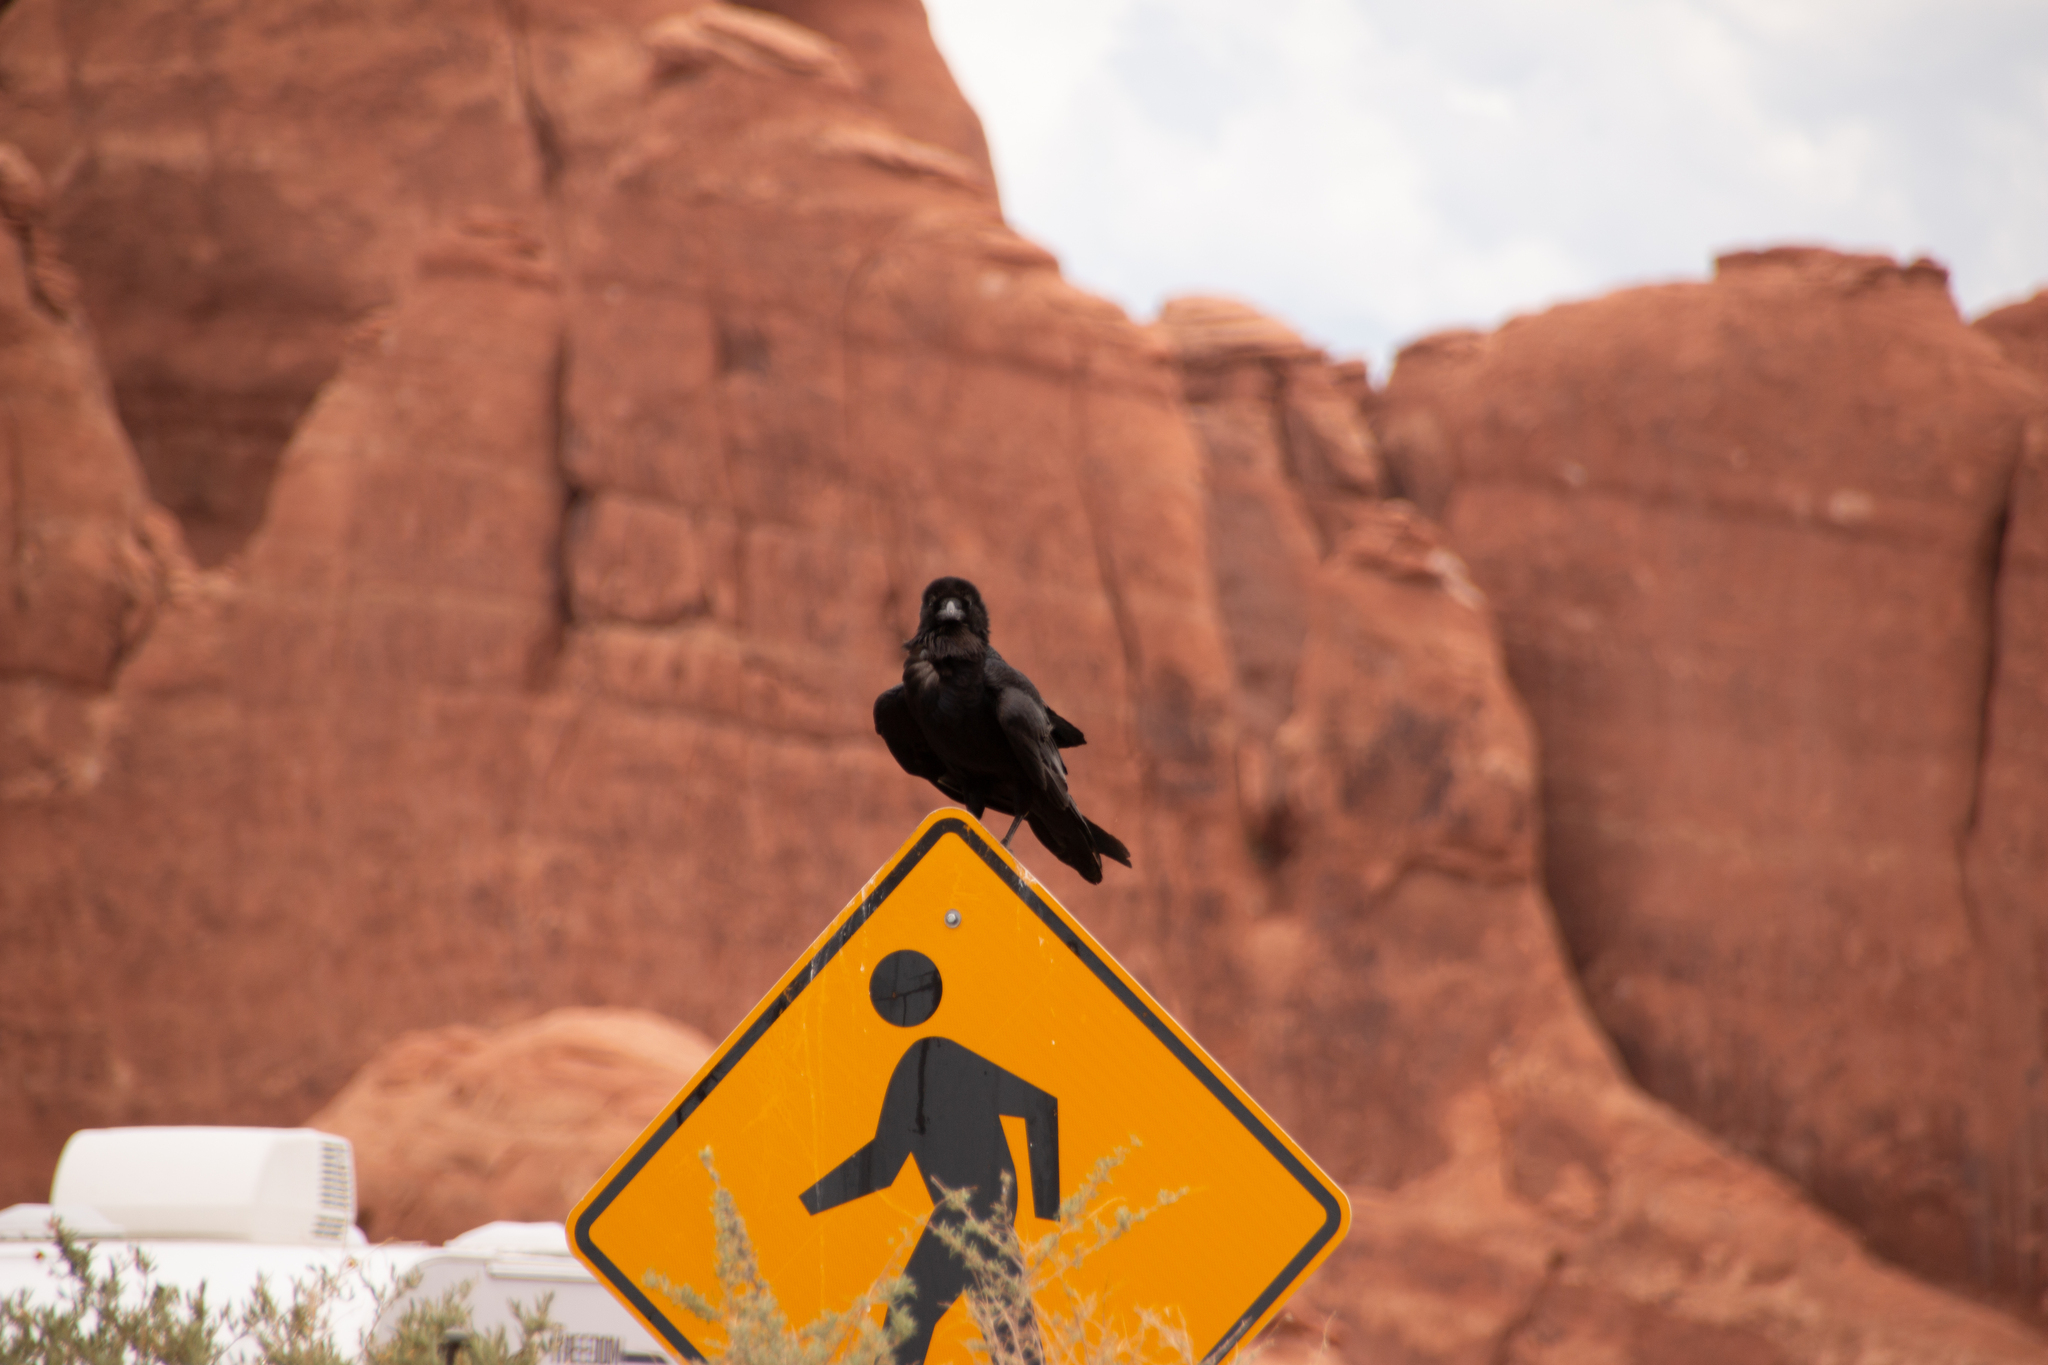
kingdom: Animalia
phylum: Chordata
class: Aves
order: Passeriformes
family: Corvidae
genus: Corvus
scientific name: Corvus corax
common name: Common raven
